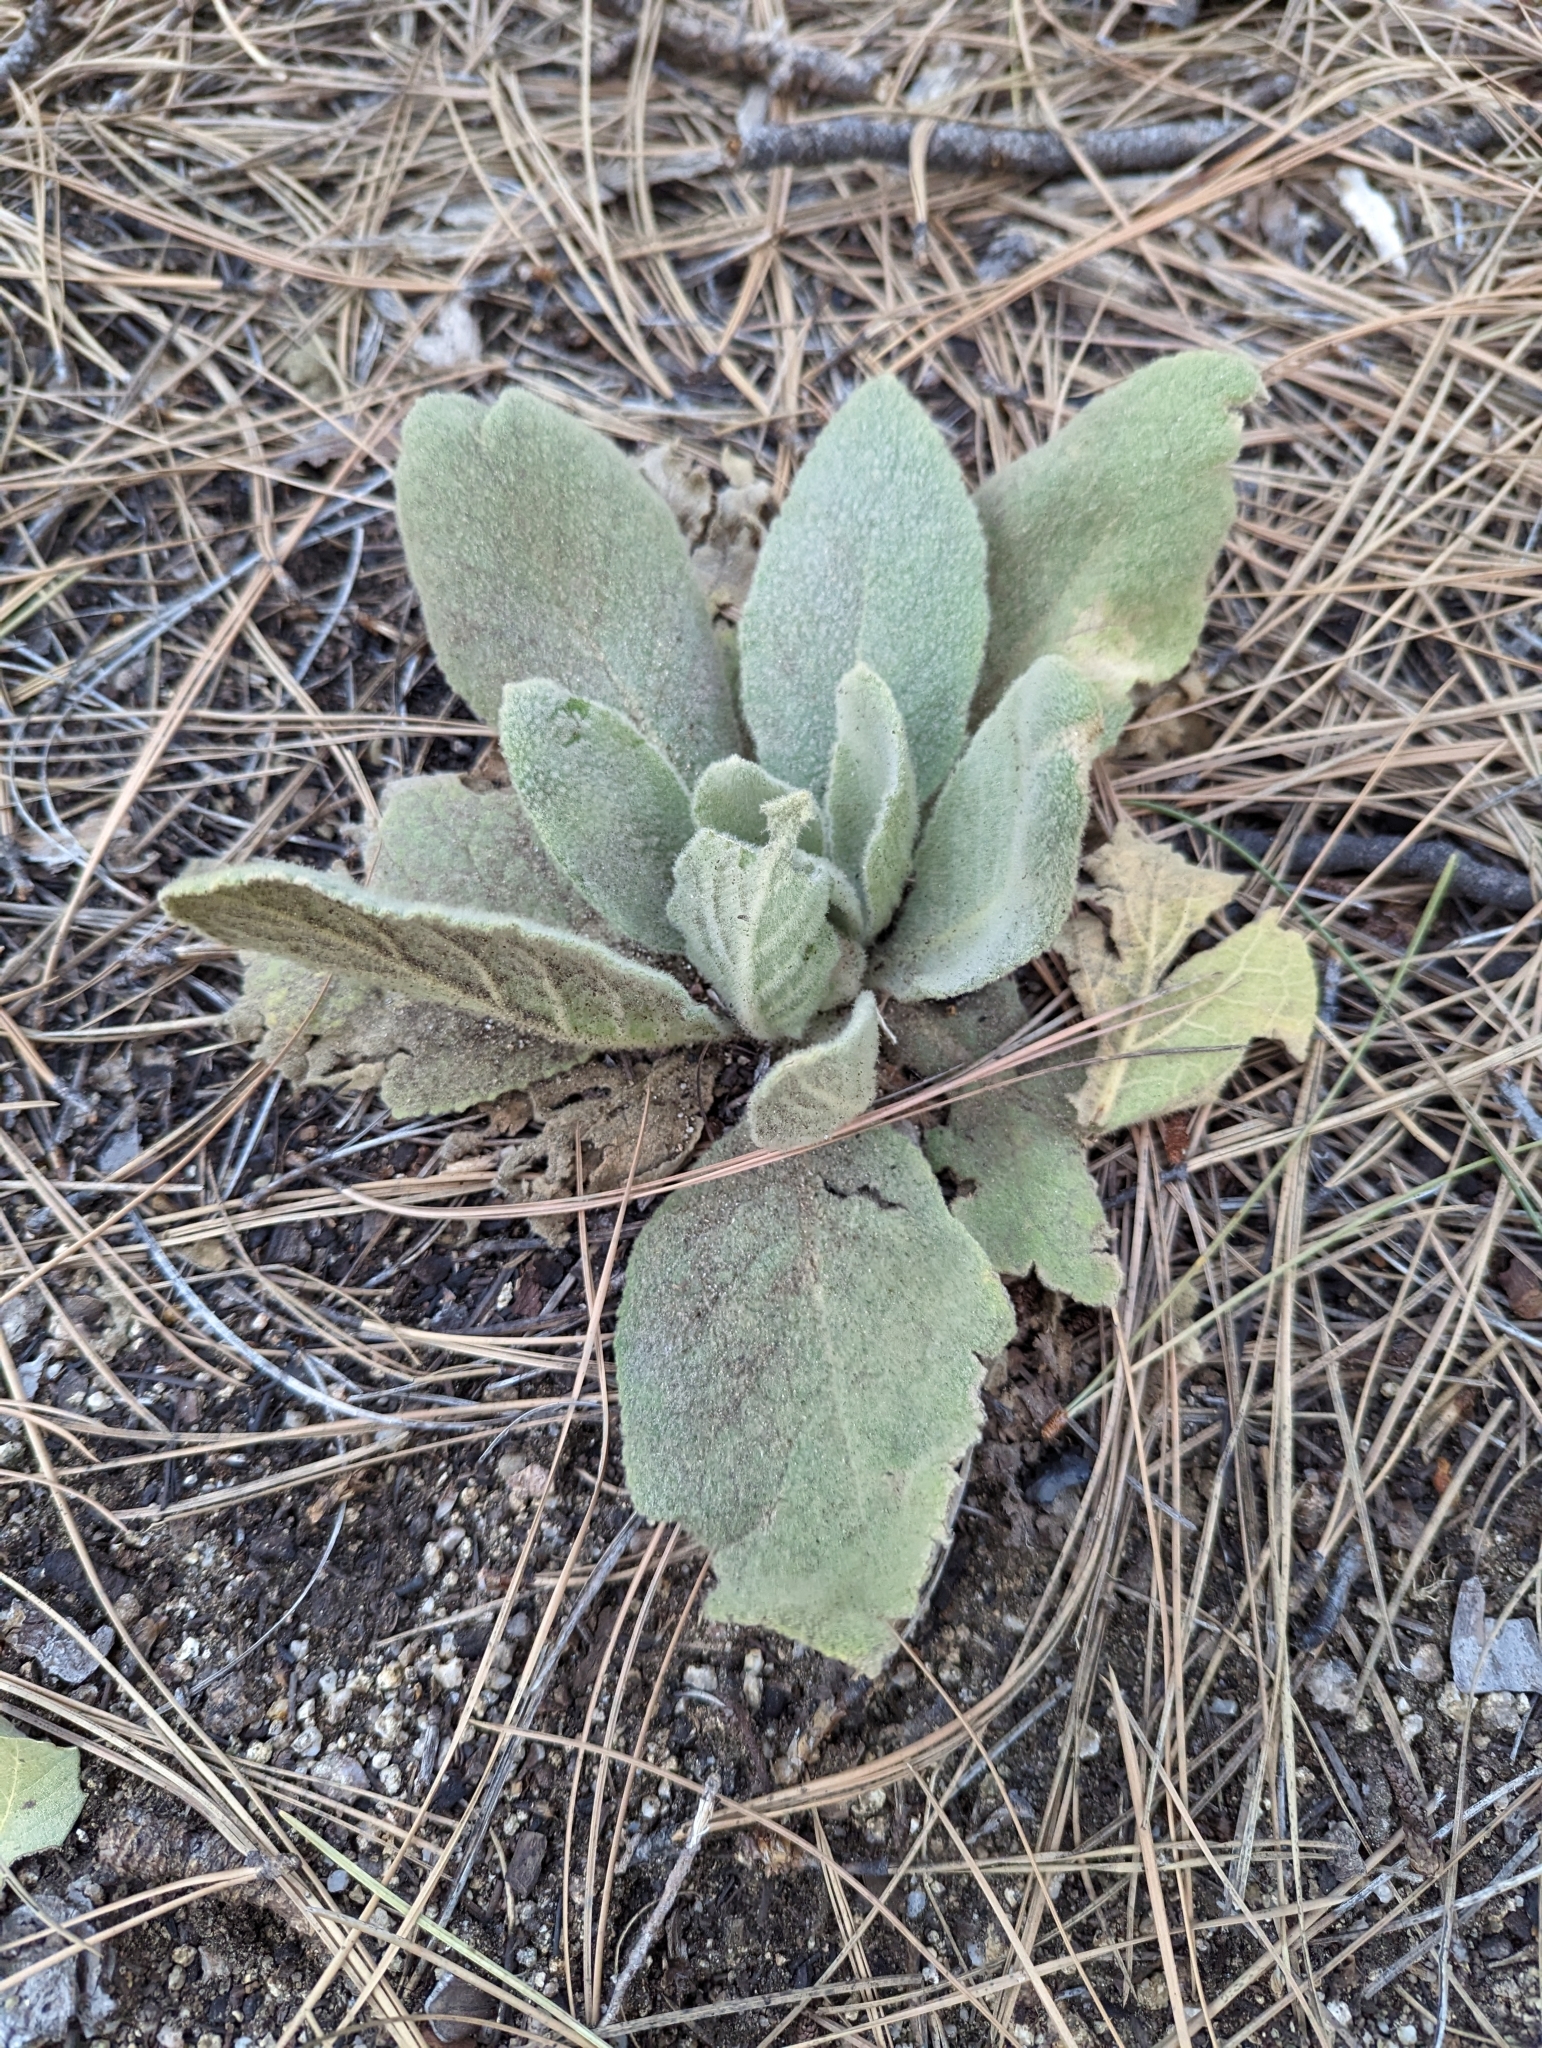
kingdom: Plantae
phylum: Tracheophyta
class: Magnoliopsida
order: Lamiales
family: Scrophulariaceae
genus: Verbascum
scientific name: Verbascum thapsus
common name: Common mullein
